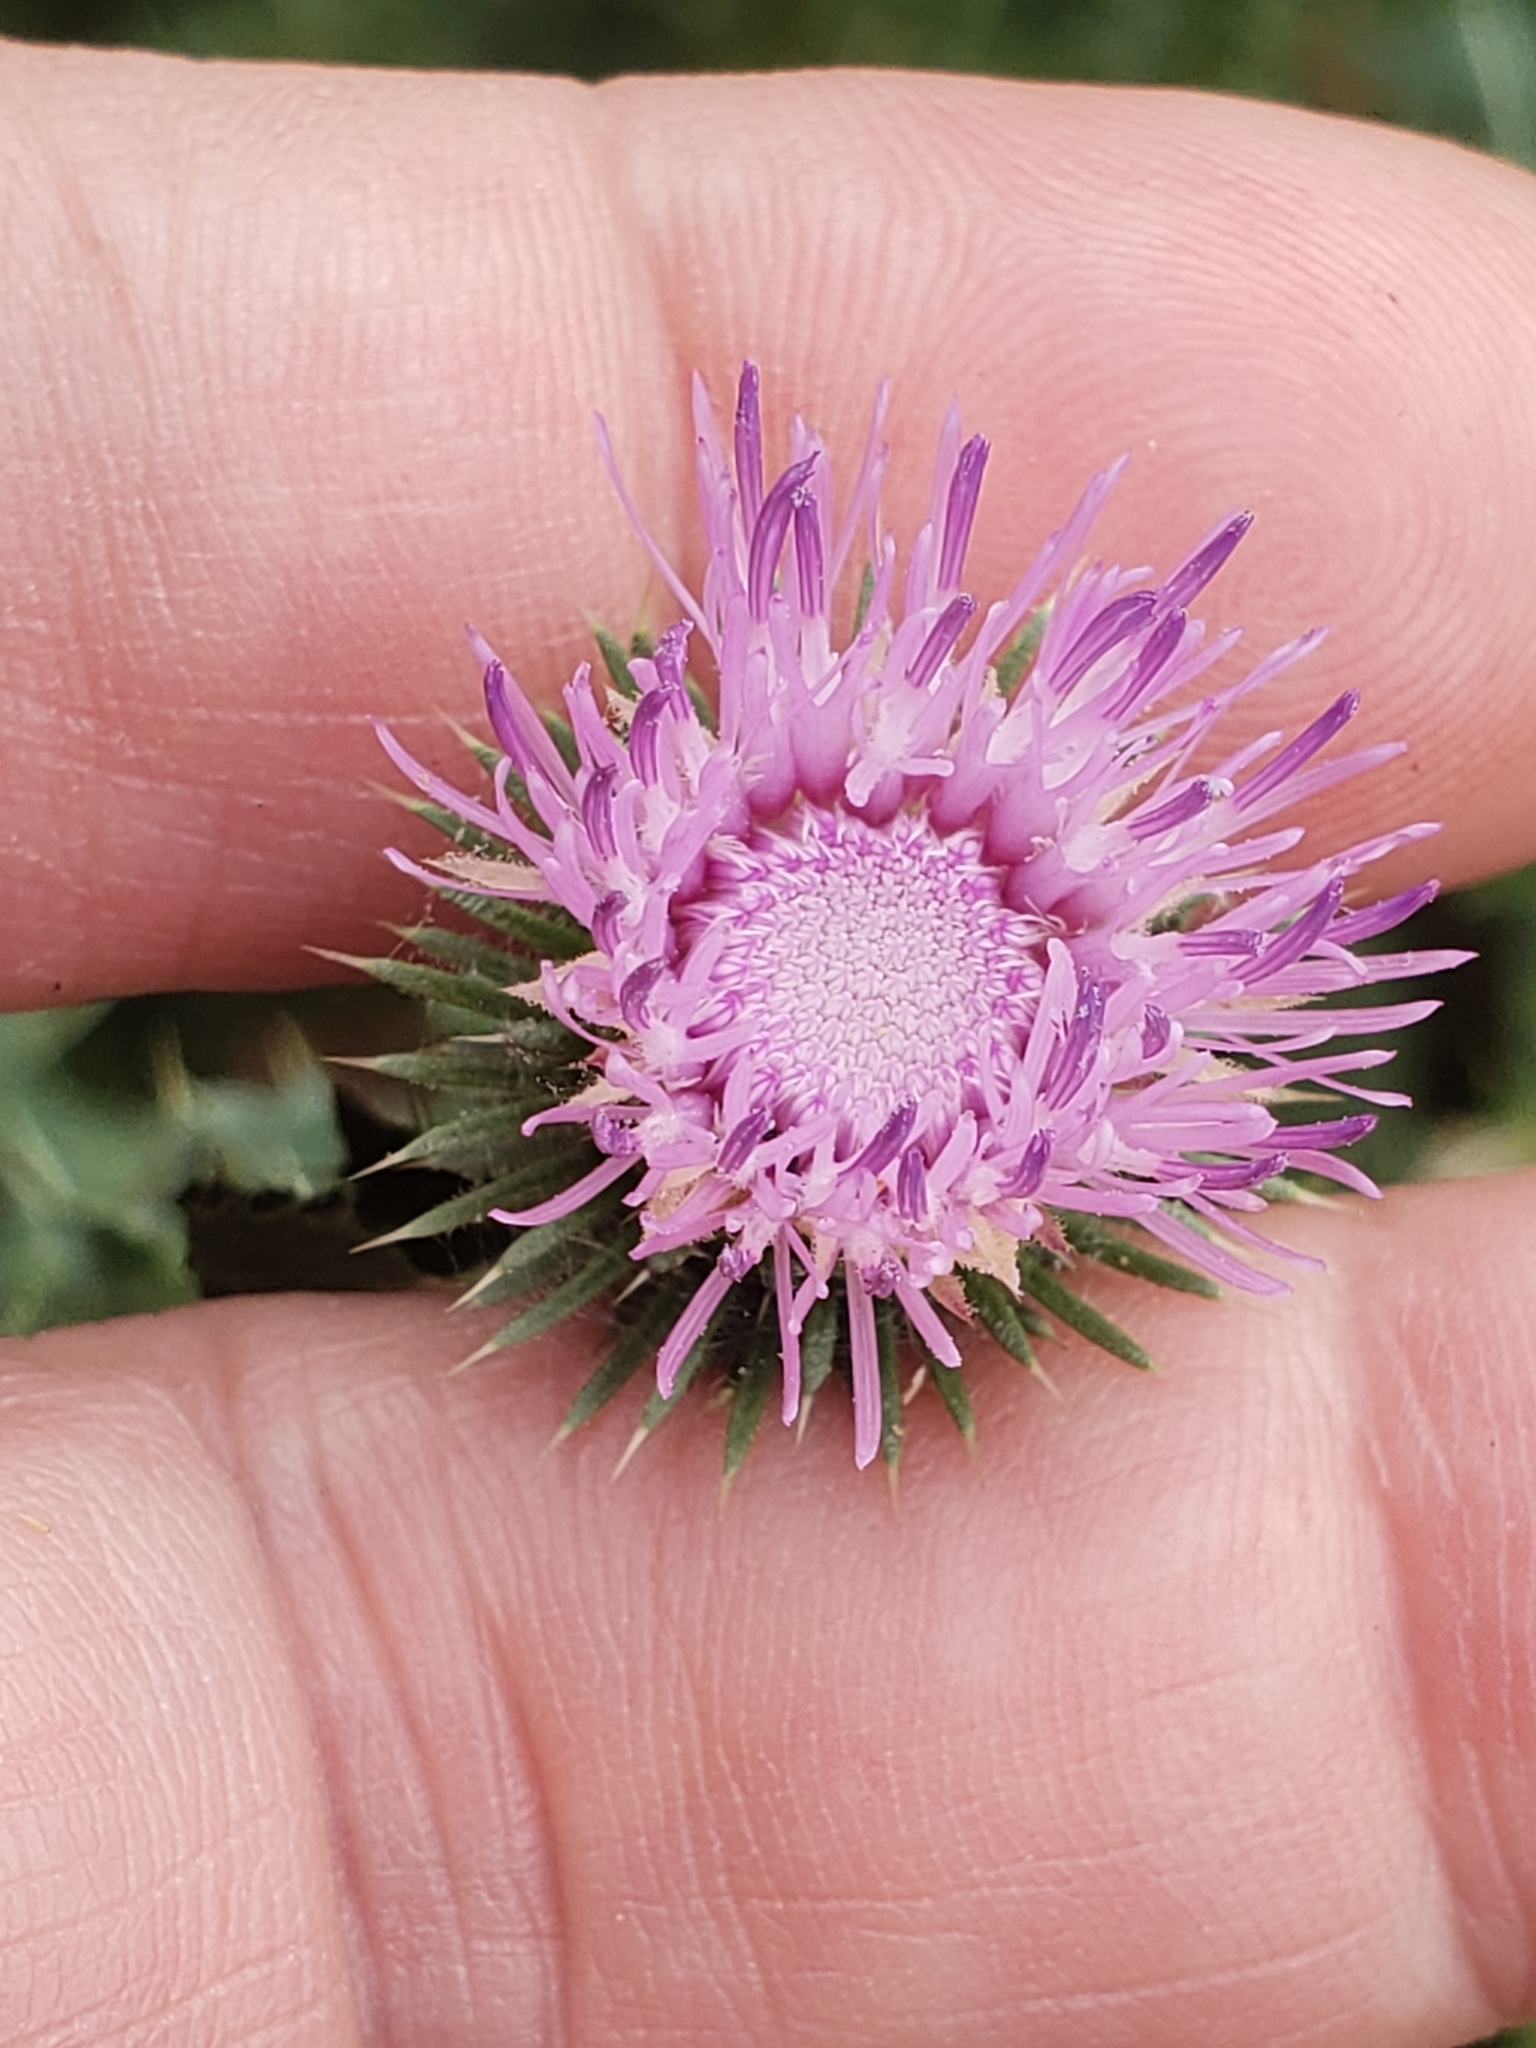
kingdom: Plantae
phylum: Tracheophyta
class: Magnoliopsida
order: Asterales
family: Asteraceae
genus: Carduus
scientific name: Carduus acanthoides
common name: Plumeless thistle
